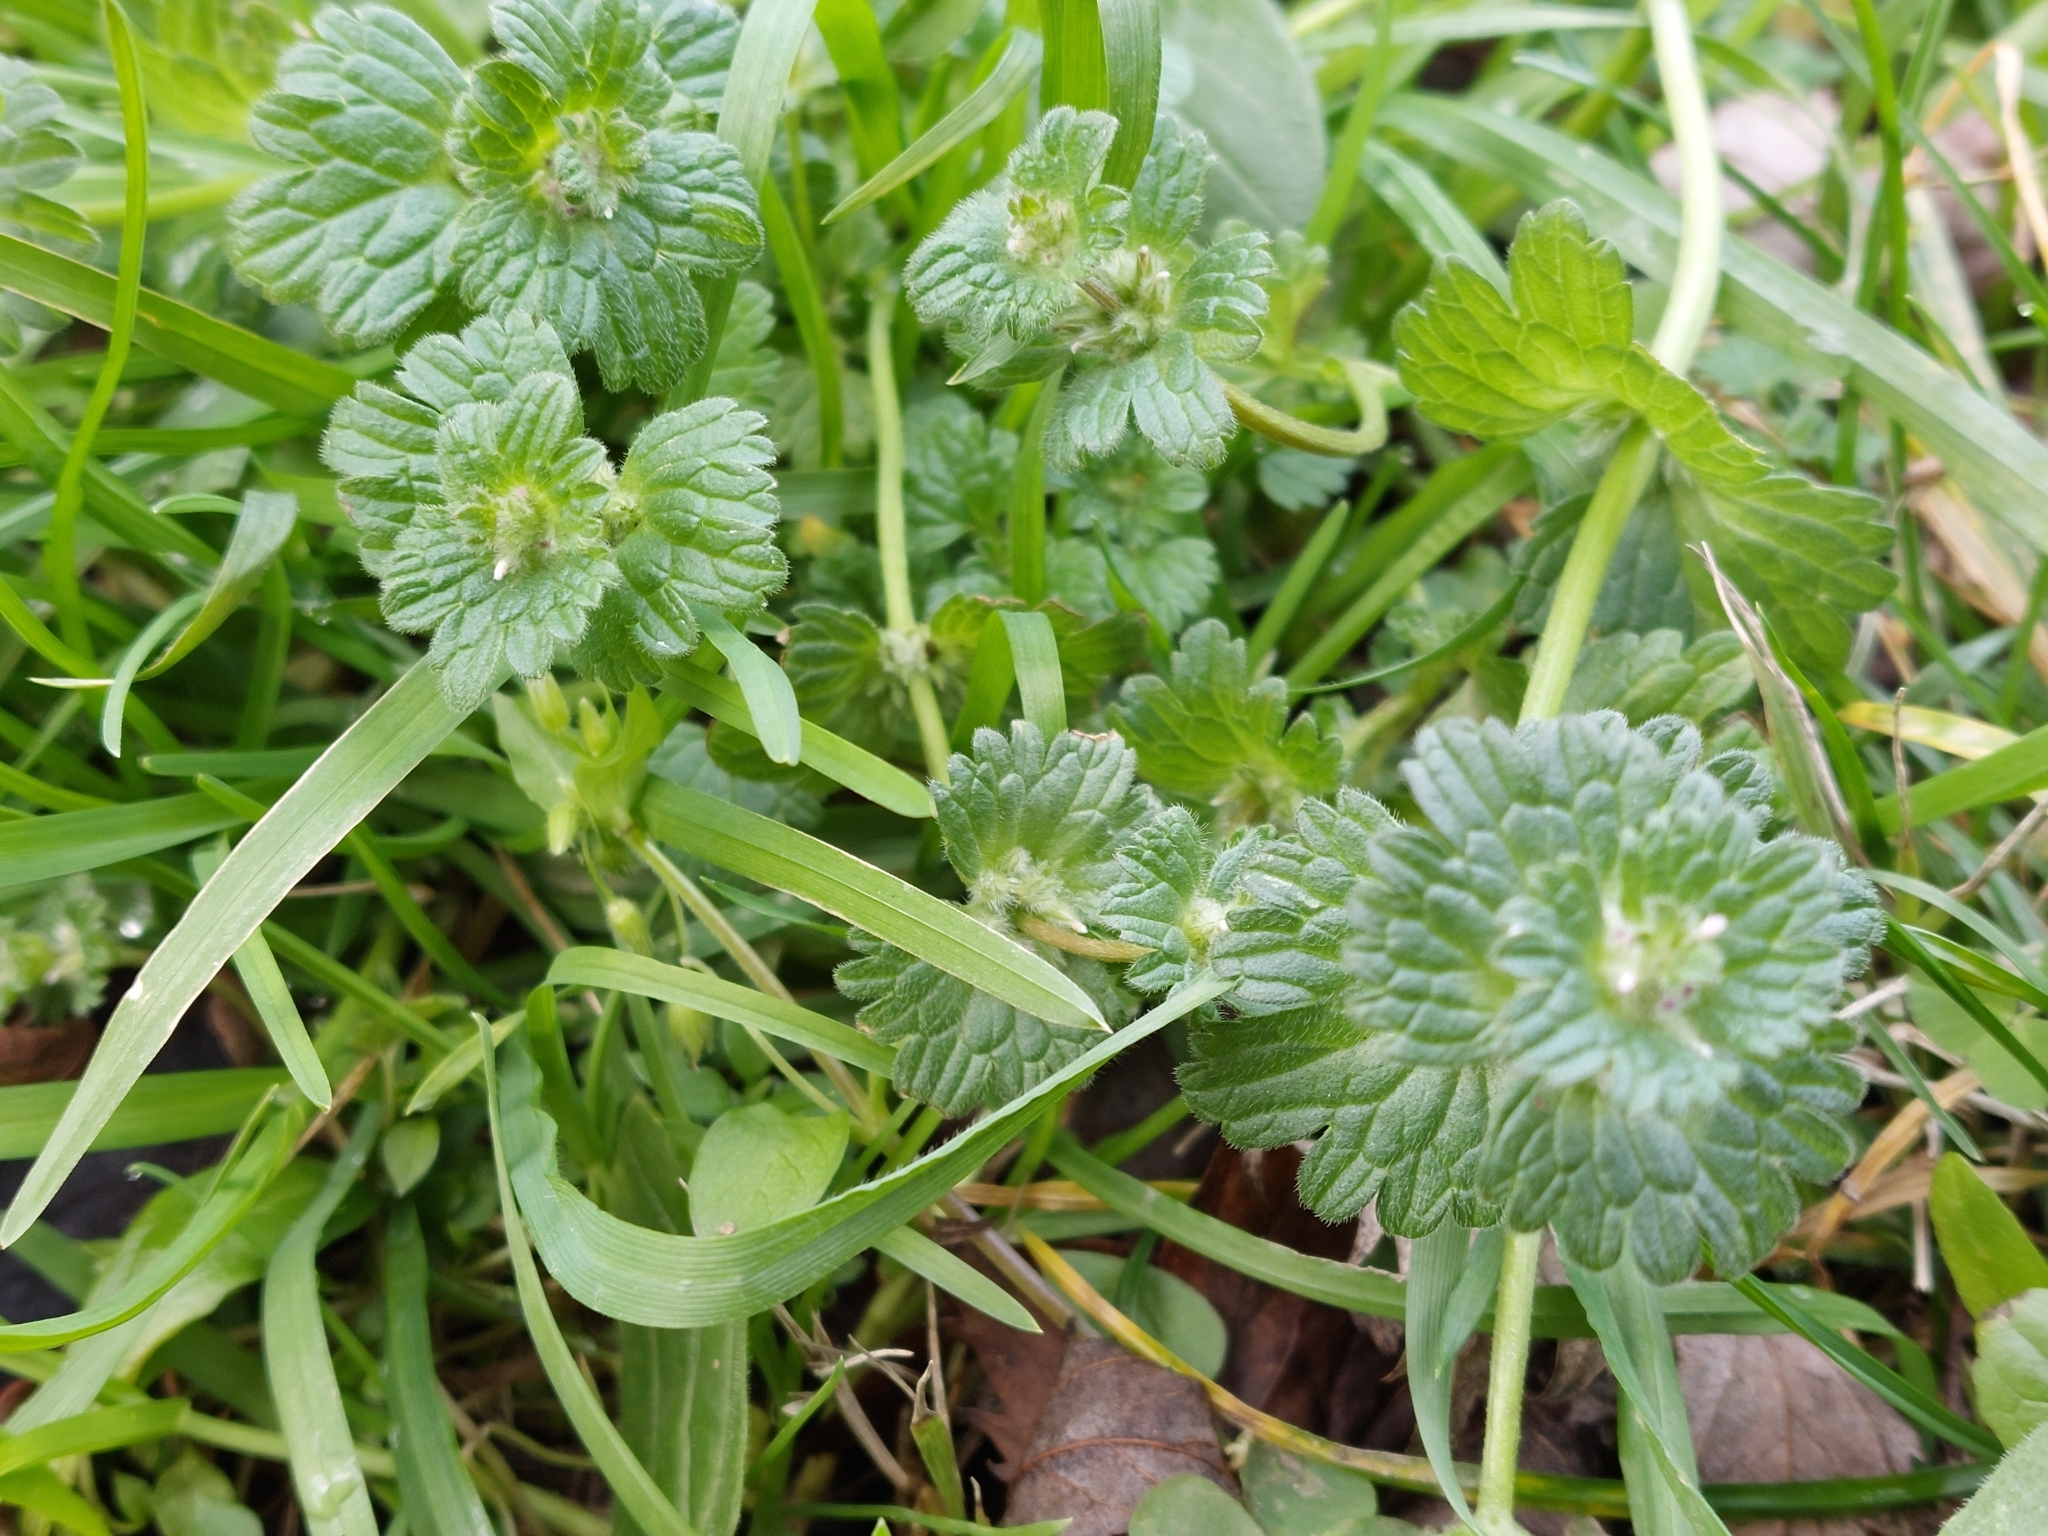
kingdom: Plantae
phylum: Tracheophyta
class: Magnoliopsida
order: Lamiales
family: Lamiaceae
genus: Lamium
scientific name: Lamium amplexicaule
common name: Henbit dead-nettle
